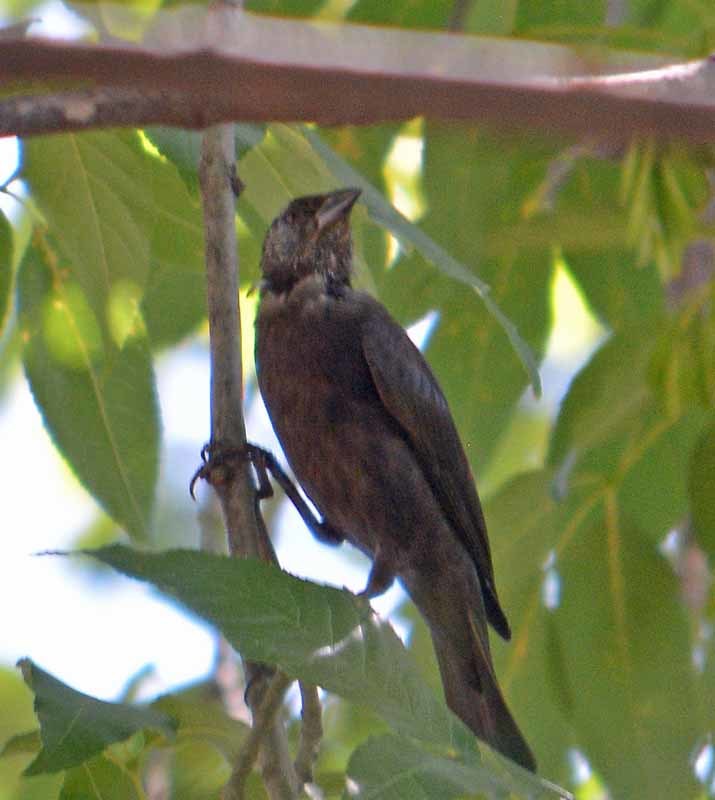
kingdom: Animalia
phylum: Chordata
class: Aves
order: Passeriformes
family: Icteridae
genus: Molothrus
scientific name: Molothrus aeneus
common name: Bronzed cowbird
